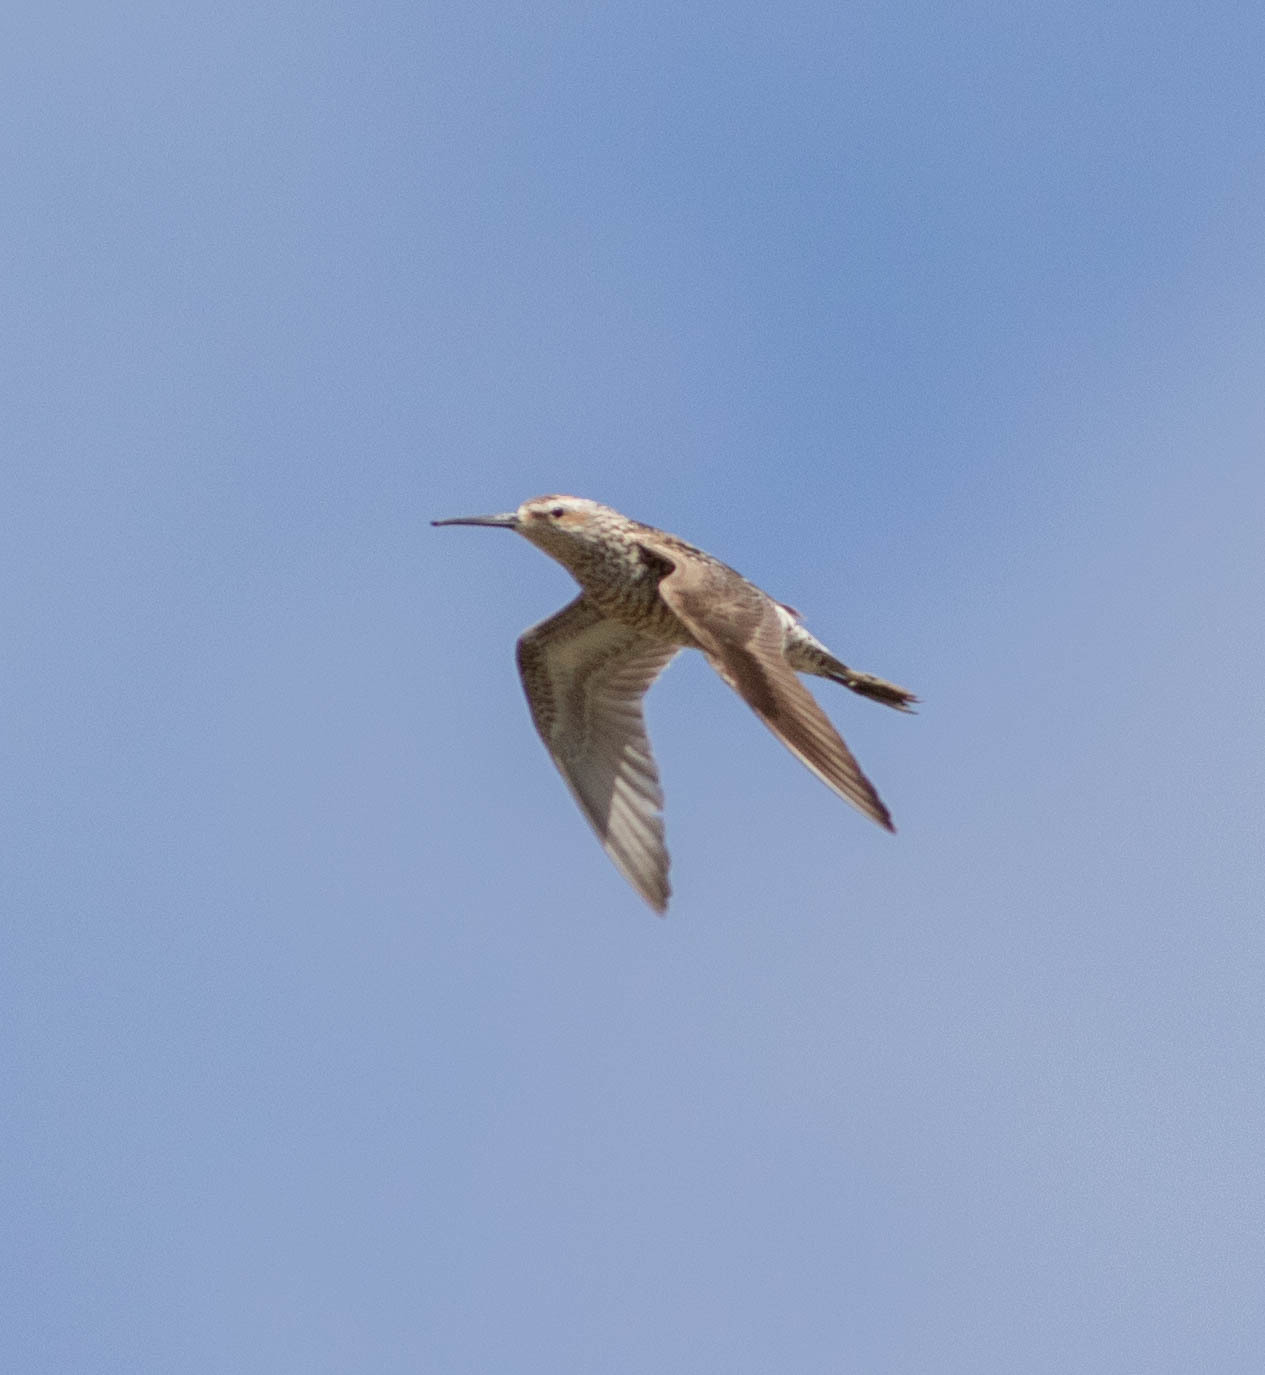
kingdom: Animalia
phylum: Chordata
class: Aves
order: Charadriiformes
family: Scolopacidae
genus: Calidris
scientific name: Calidris himantopus
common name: Stilt sandpiper
